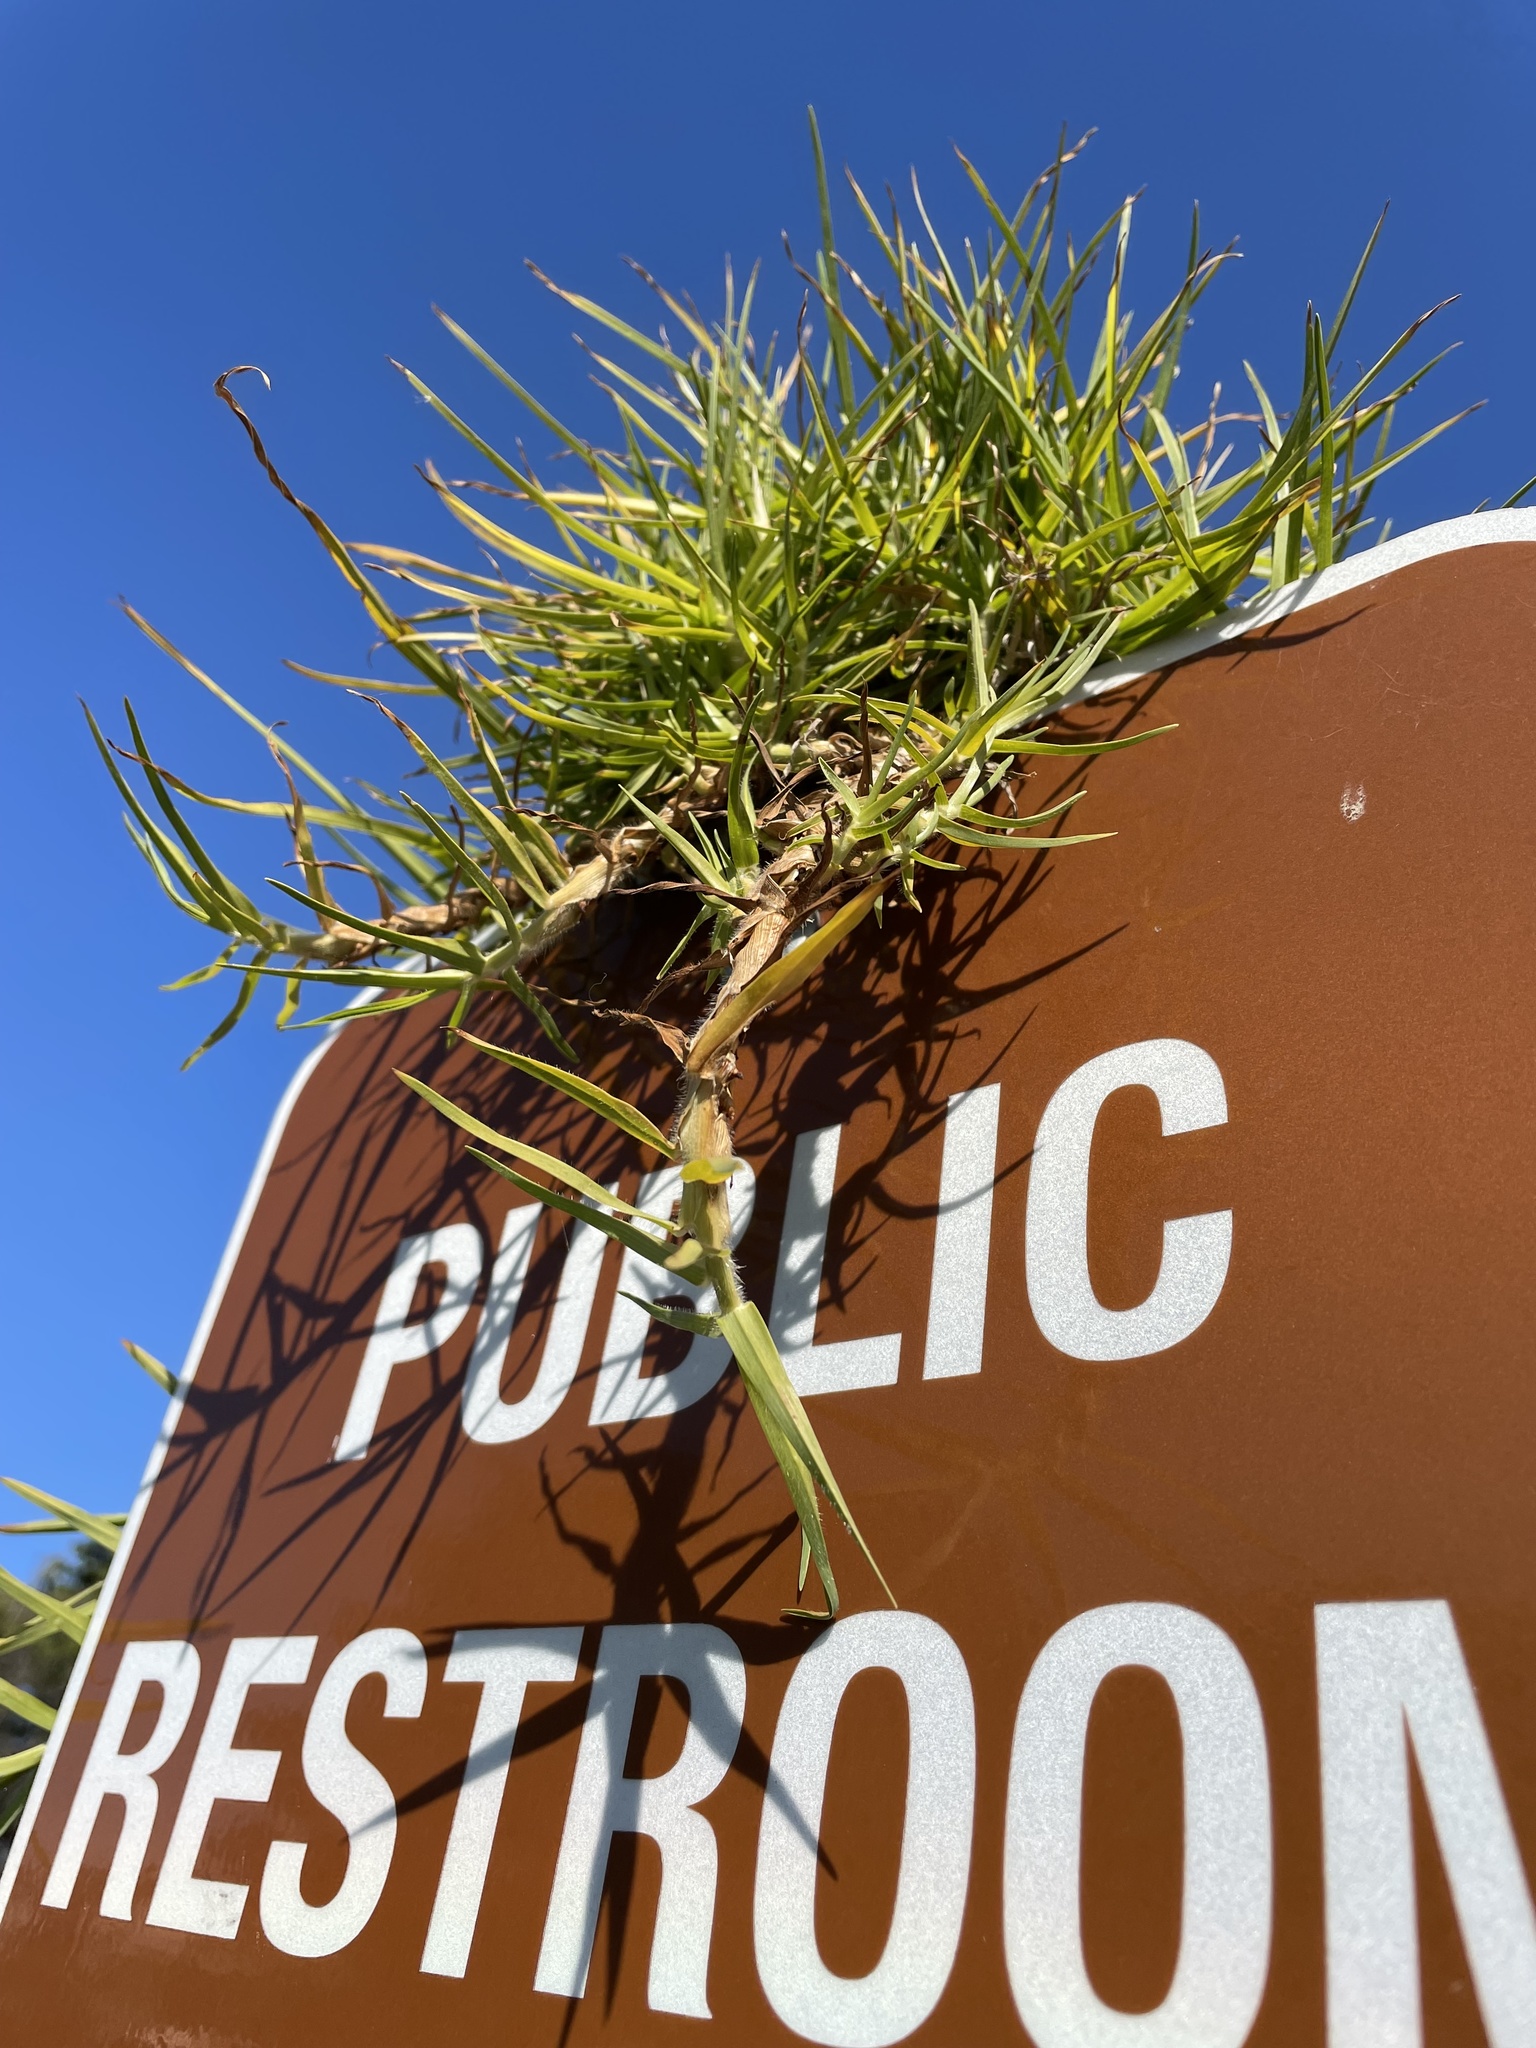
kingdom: Plantae
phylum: Tracheophyta
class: Liliopsida
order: Poales
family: Poaceae
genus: Cenchrus
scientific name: Cenchrus clandestinus
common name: Kikuyugrass
